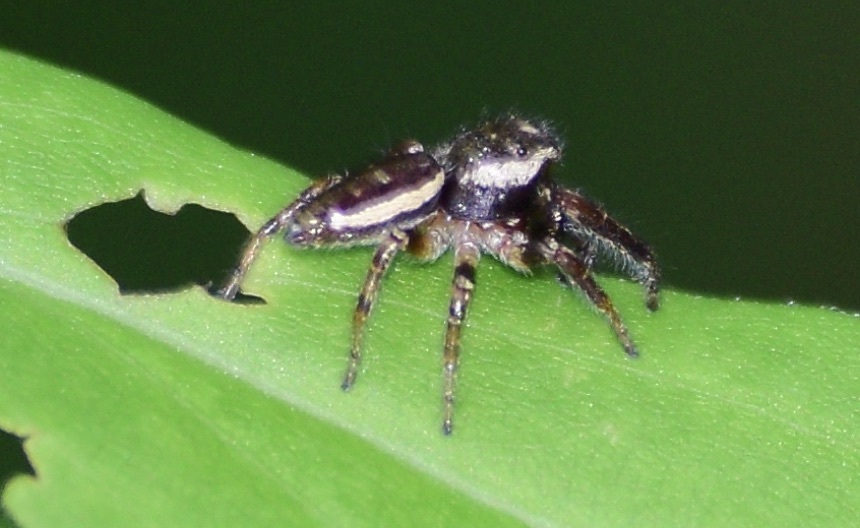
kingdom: Animalia
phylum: Arthropoda
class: Arachnida
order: Araneae
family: Salticidae
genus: Eris
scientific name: Eris militaris
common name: Bronze jumper
